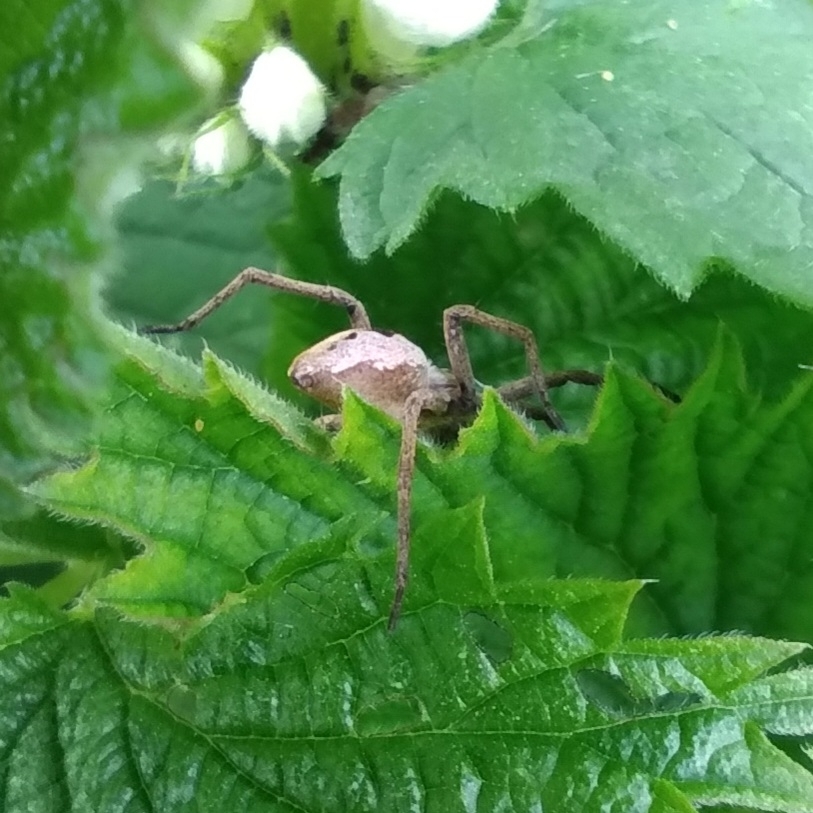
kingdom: Animalia
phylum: Arthropoda
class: Arachnida
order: Araneae
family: Pisauridae
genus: Pisaura
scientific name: Pisaura mirabilis
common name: Tent spider
